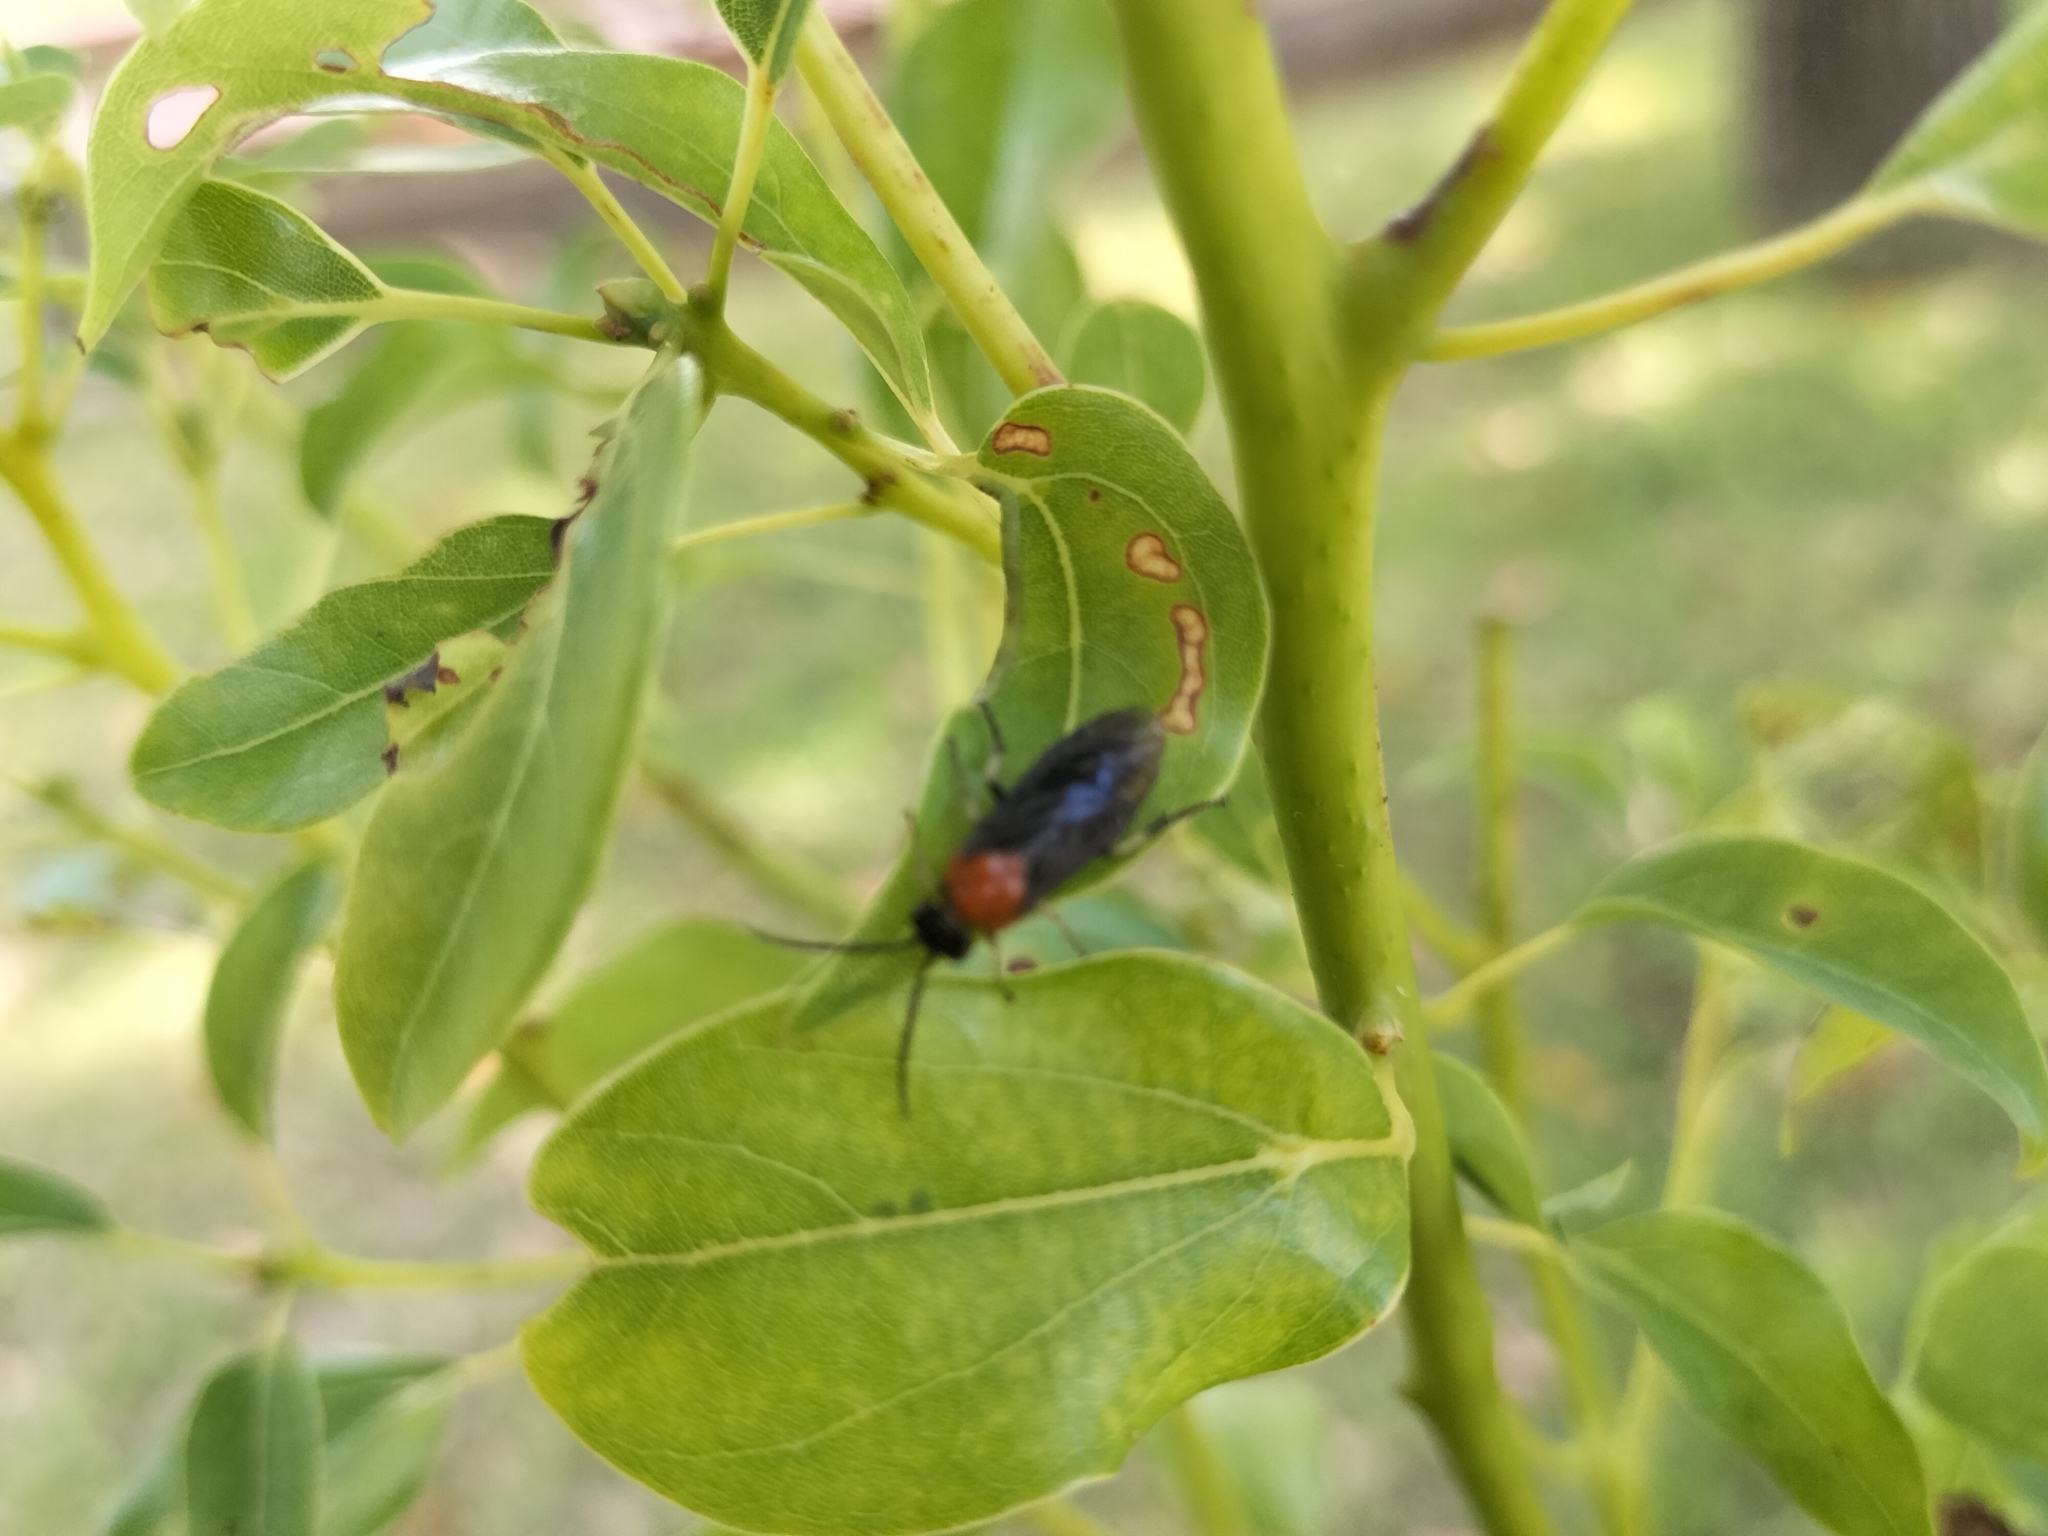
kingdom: Animalia
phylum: Arthropoda
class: Insecta
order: Hymenoptera
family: Tenthredinidae
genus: Moricella
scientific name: Moricella rufonota
